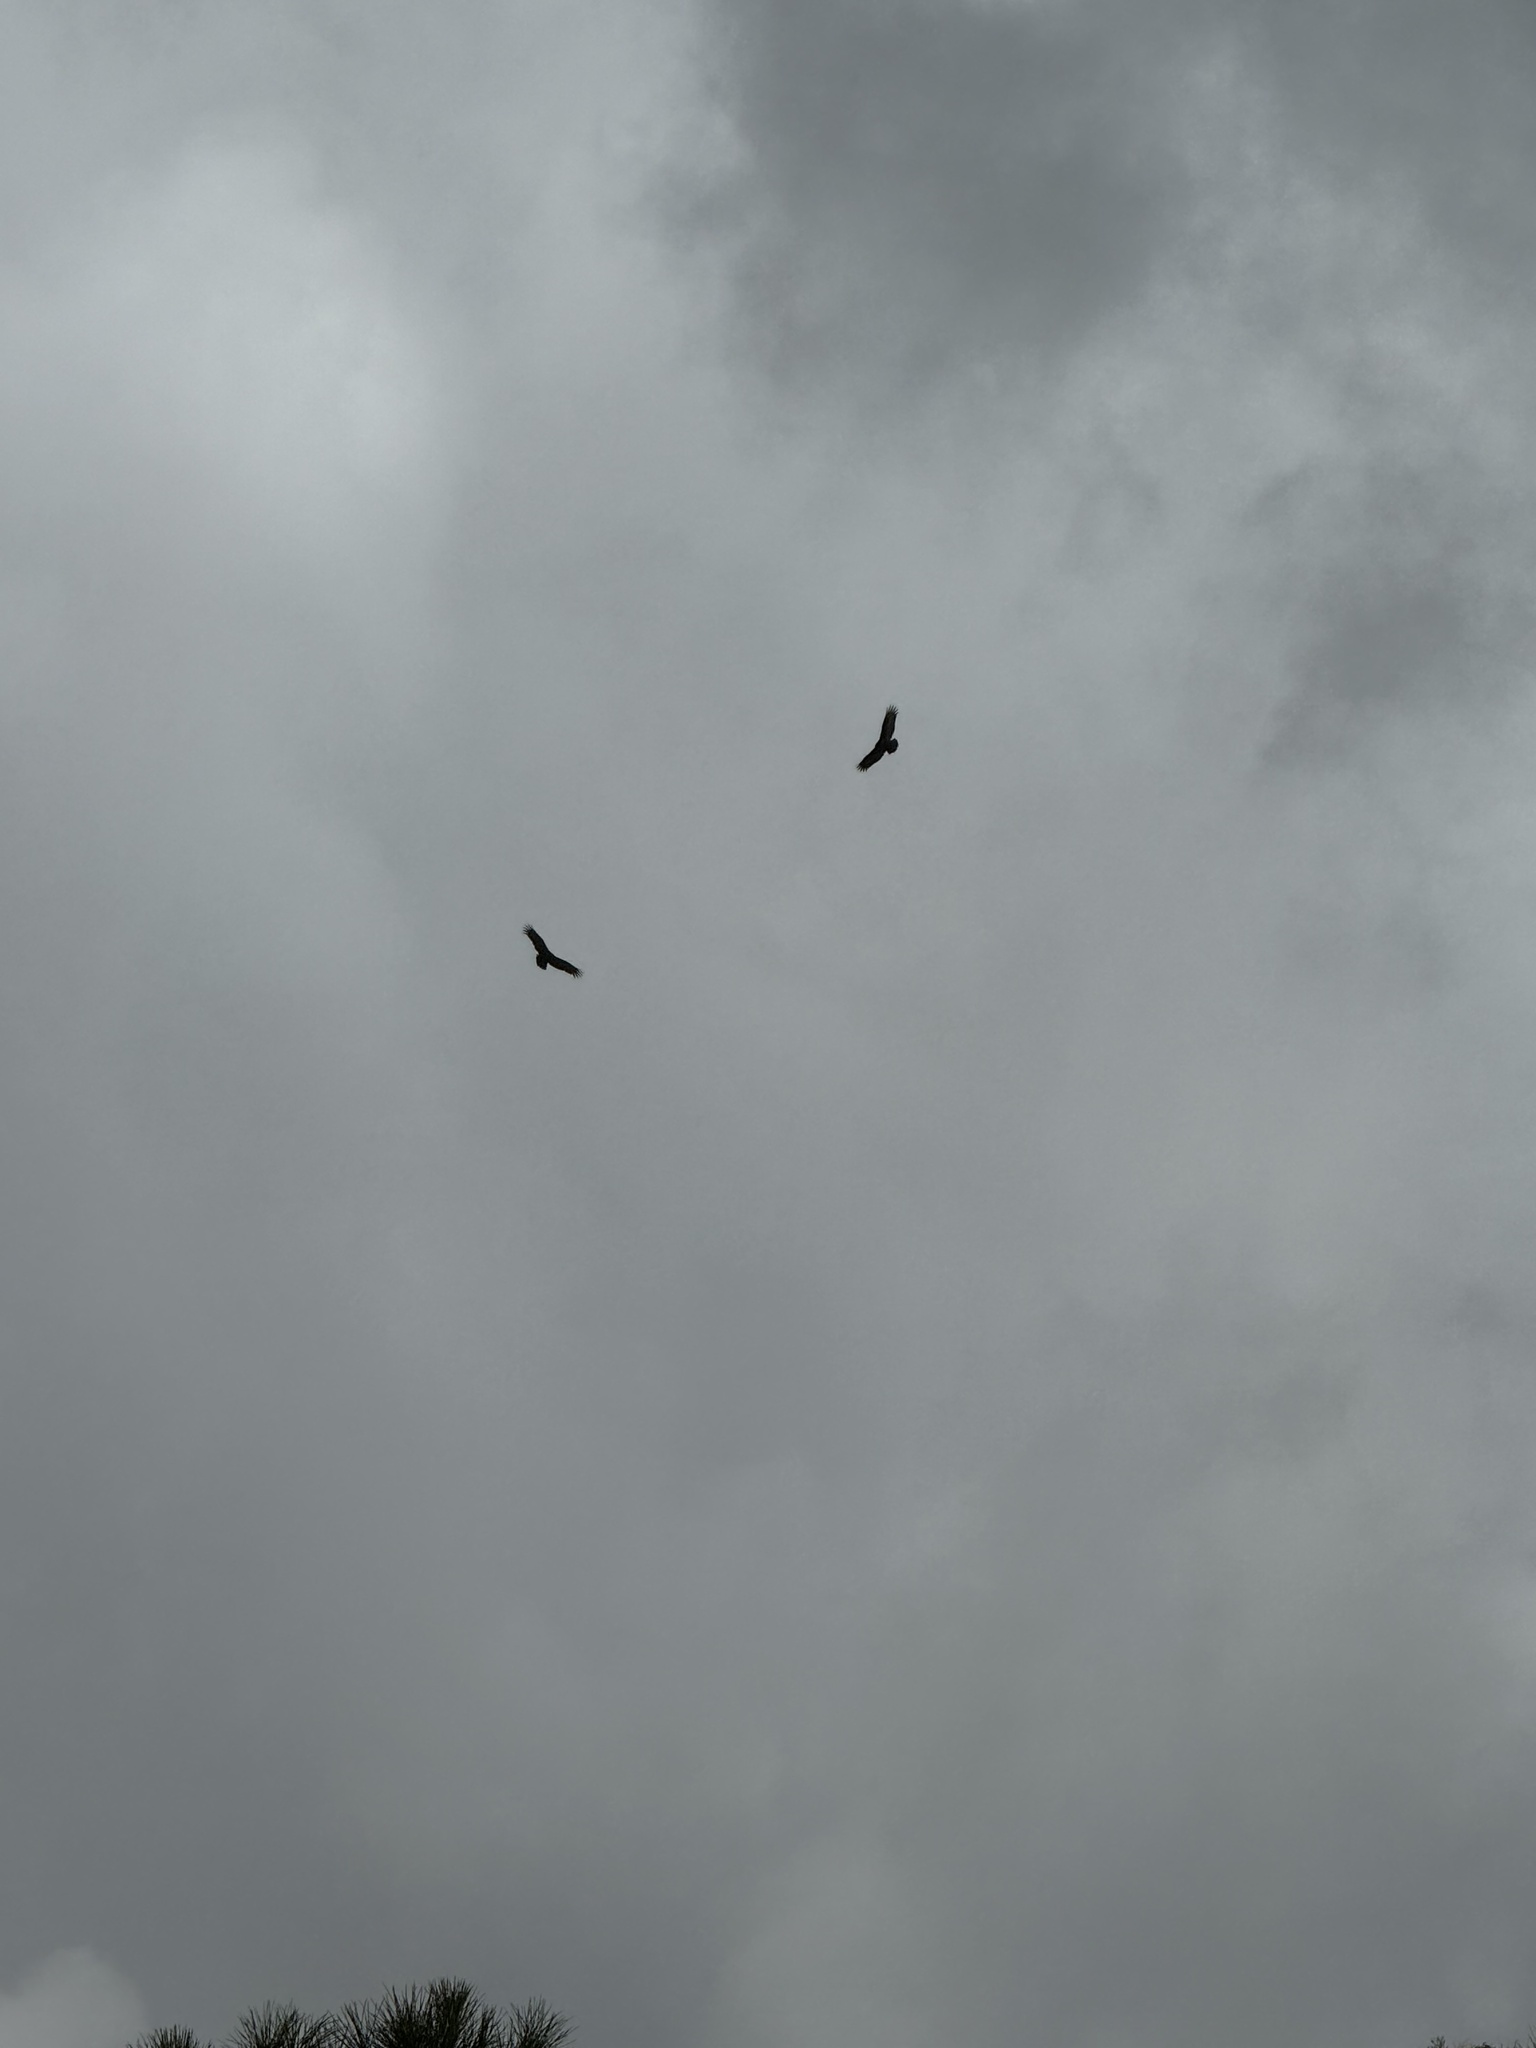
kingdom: Animalia
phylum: Chordata
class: Aves
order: Accipitriformes
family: Accipitridae
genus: Buteo
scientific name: Buteo jamaicensis
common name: Red-tailed hawk
